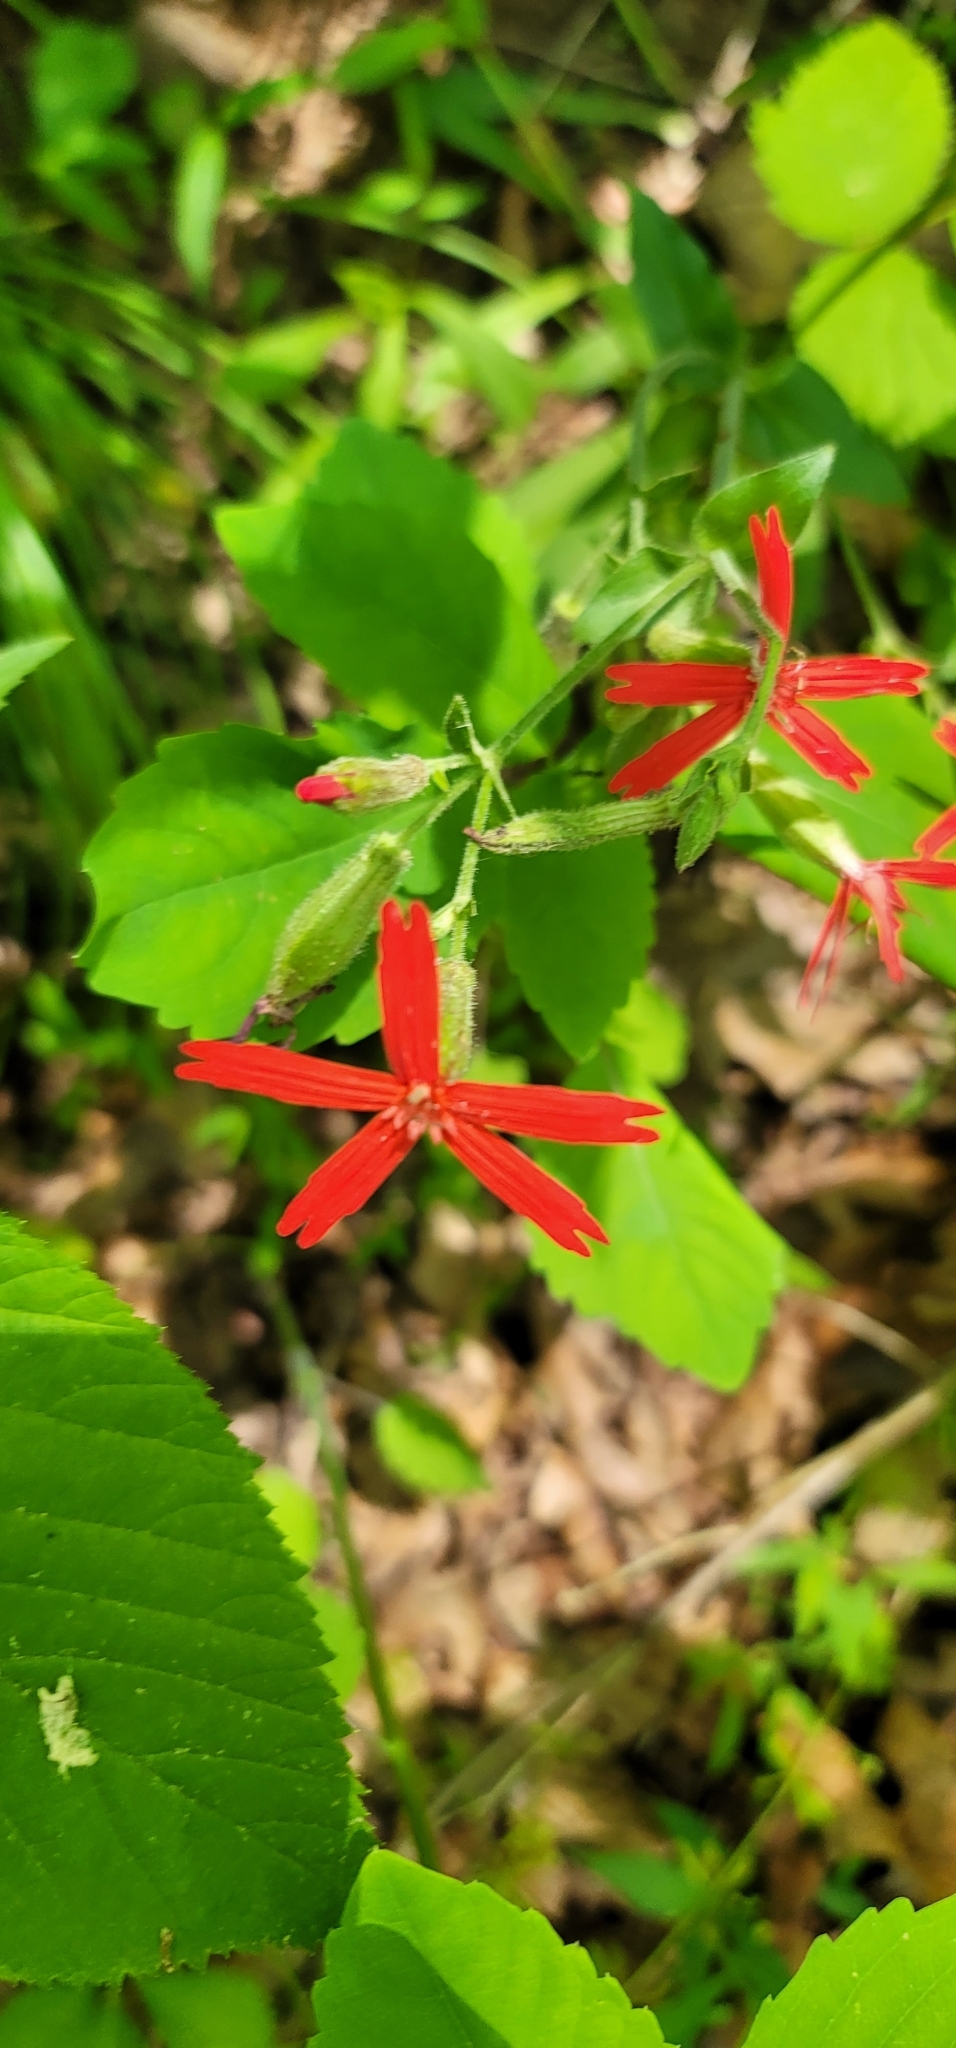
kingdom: Plantae
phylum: Tracheophyta
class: Magnoliopsida
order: Caryophyllales
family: Caryophyllaceae
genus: Silene
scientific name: Silene virginica
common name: Fire-pink
